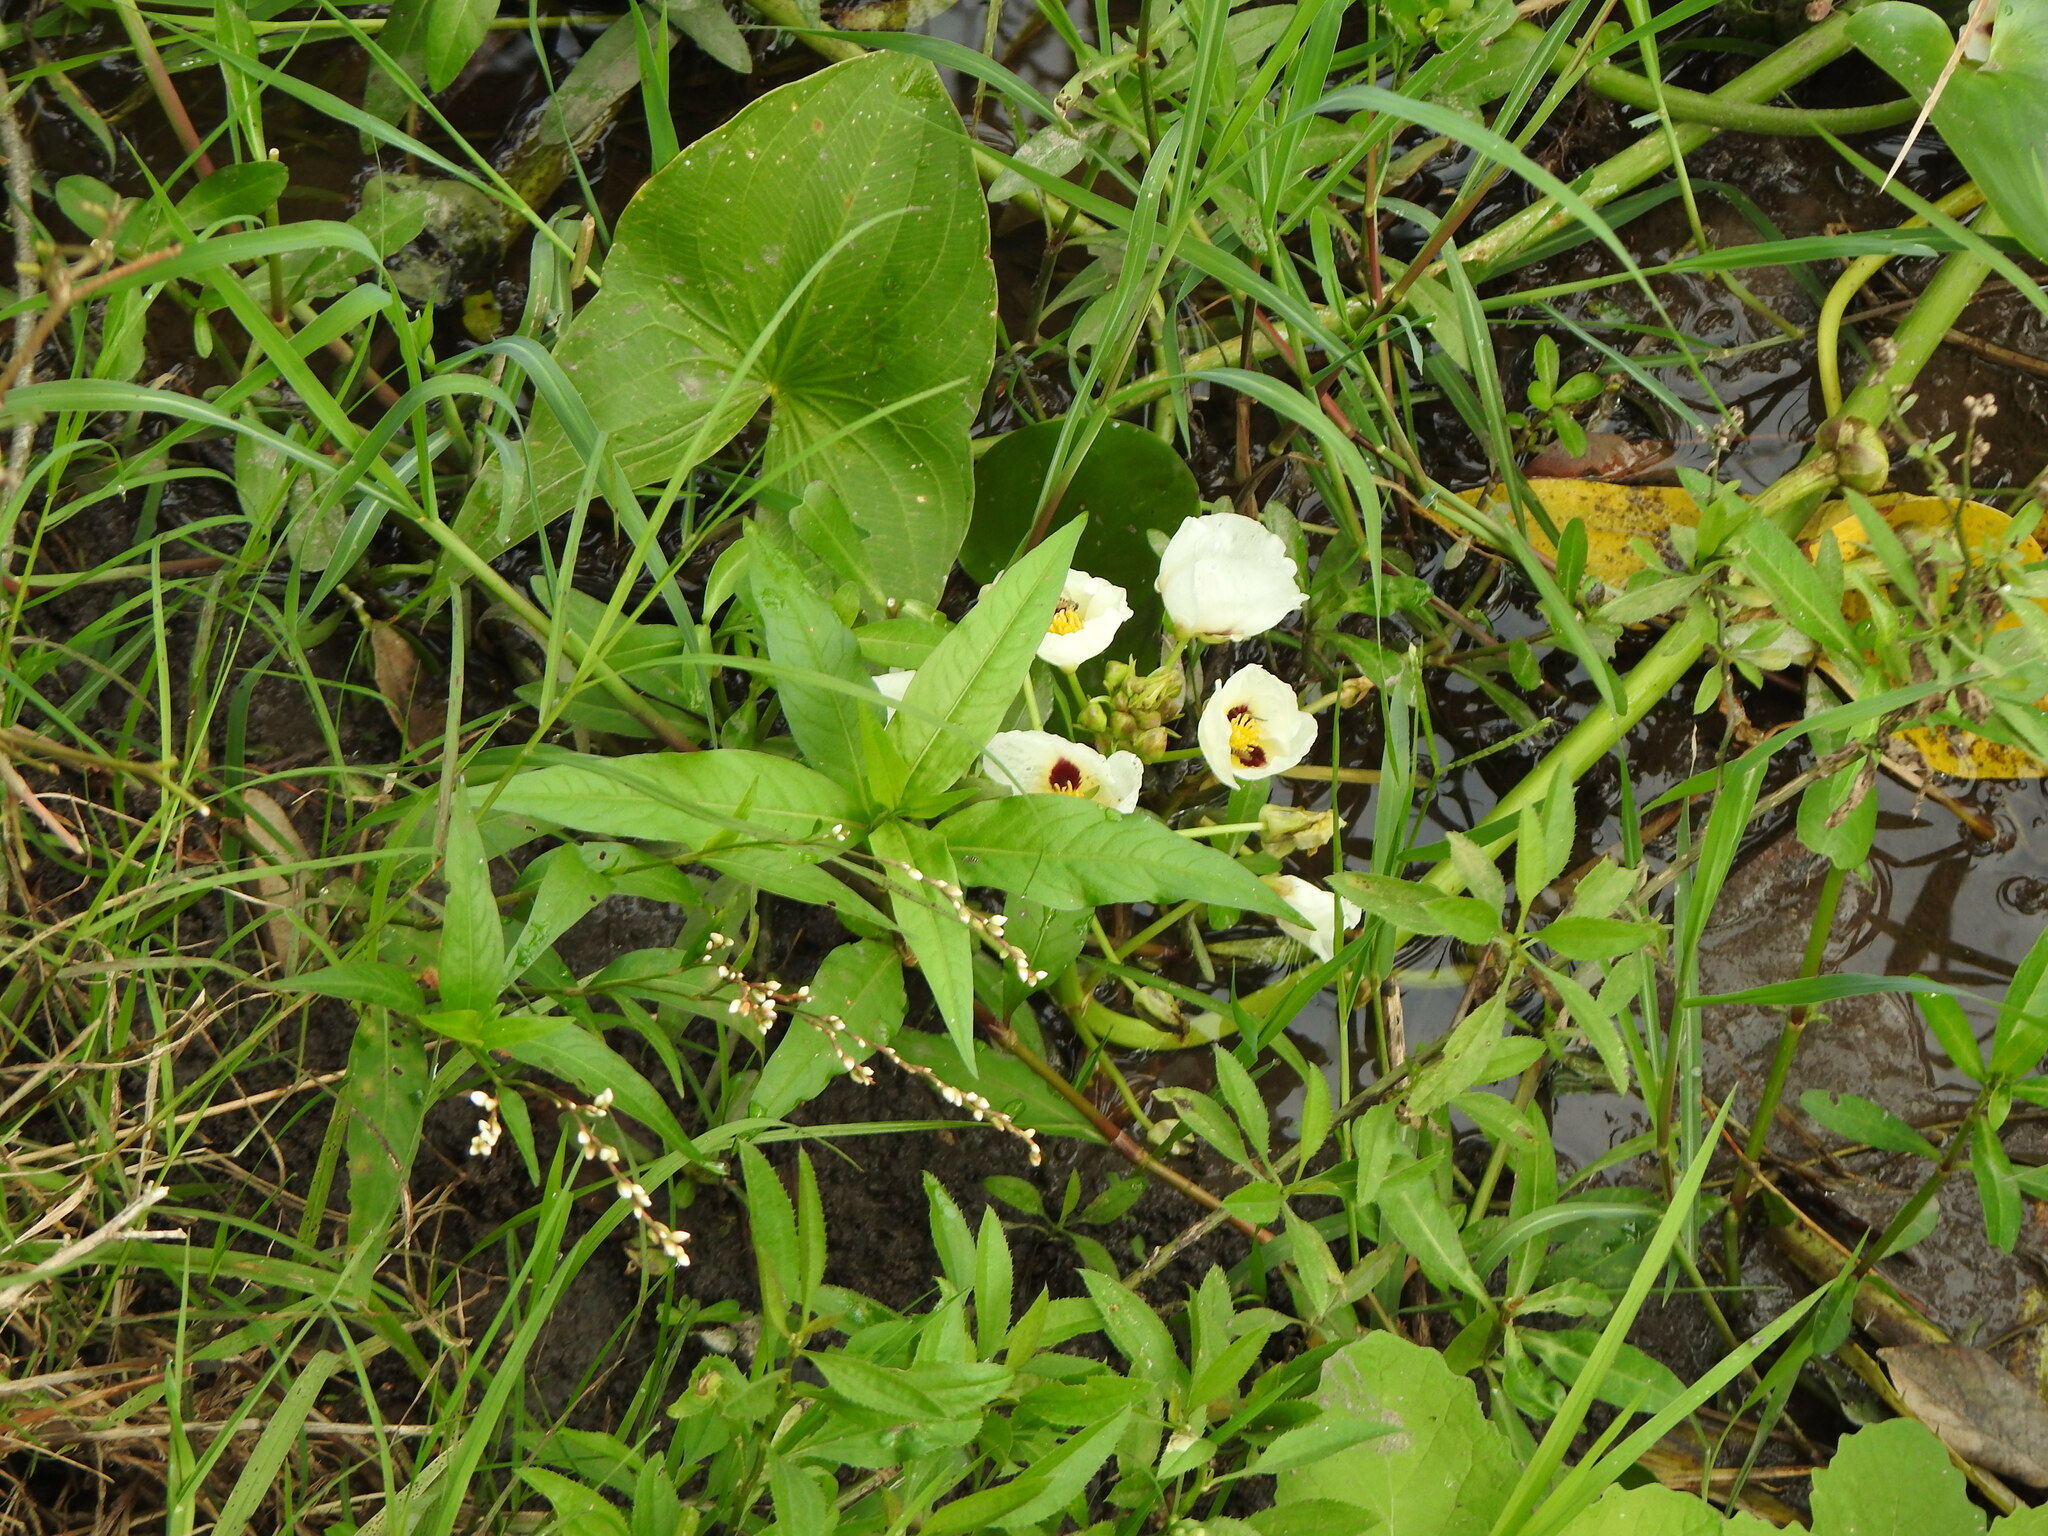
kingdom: Plantae
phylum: Tracheophyta
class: Liliopsida
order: Alismatales
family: Alismataceae
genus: Sagittaria
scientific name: Sagittaria montevidensis
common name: Giant arrowhead
